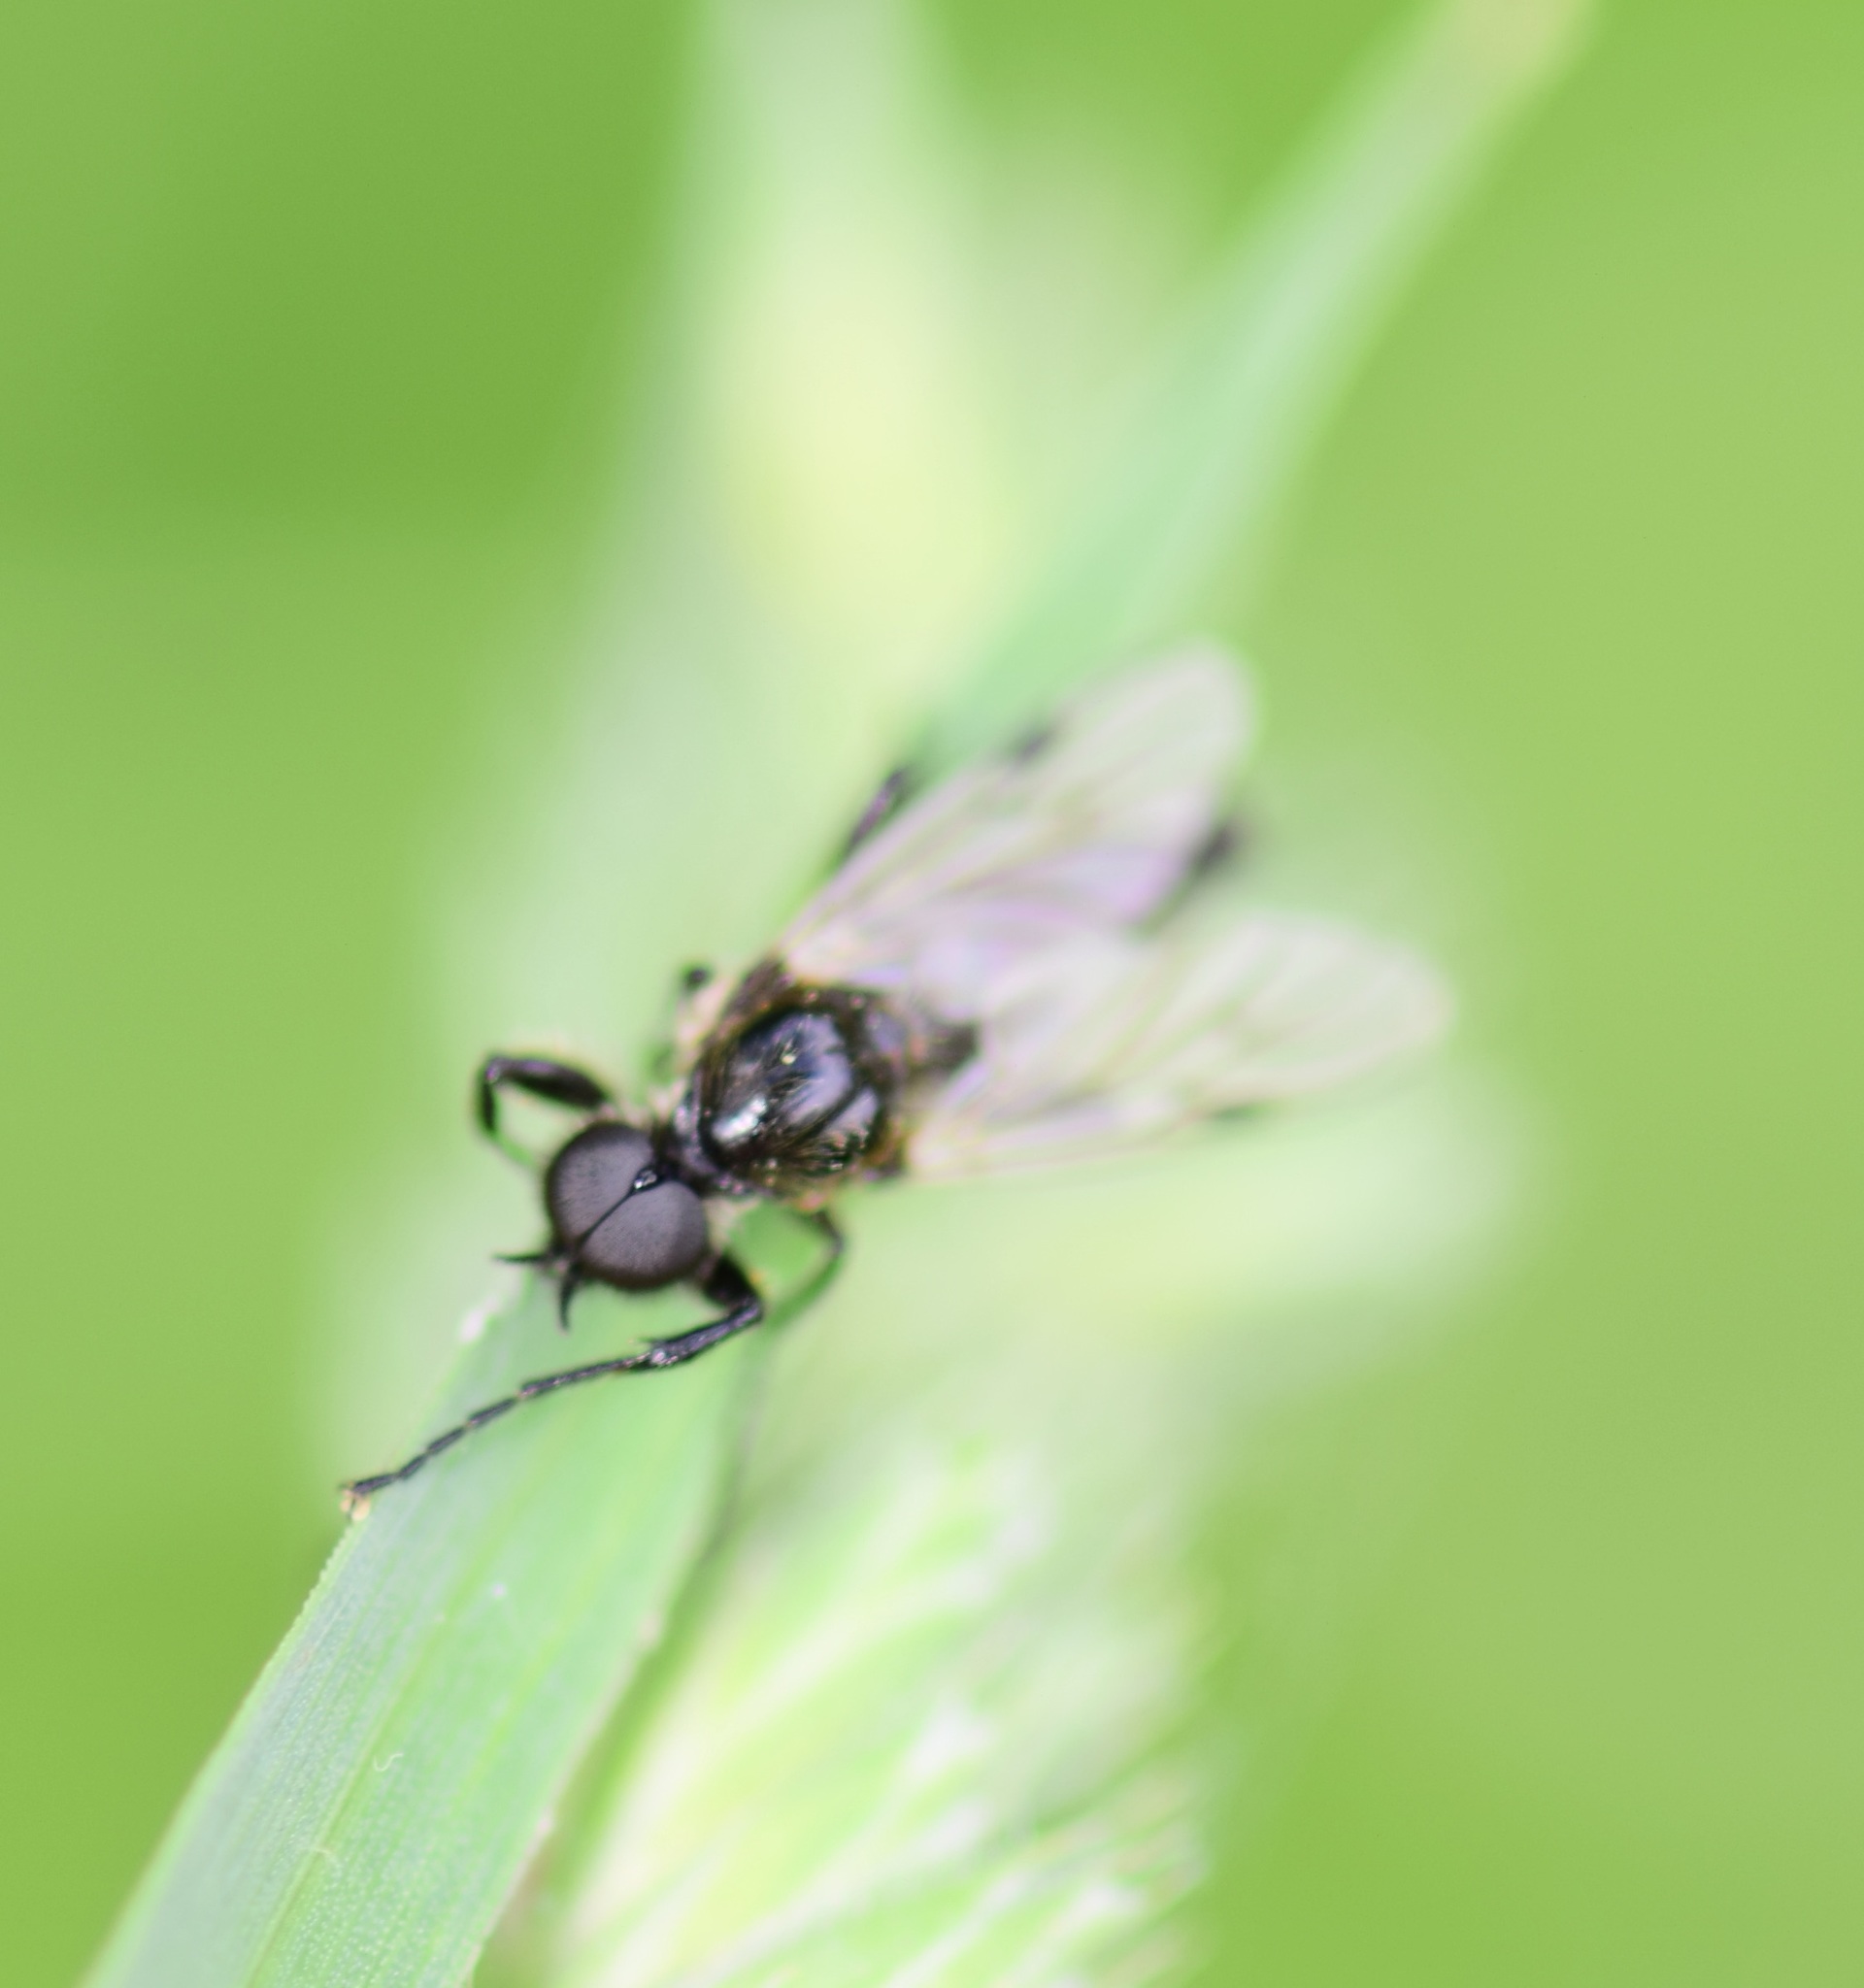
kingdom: Animalia
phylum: Arthropoda
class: Insecta
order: Diptera
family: Bibionidae
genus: Bibio
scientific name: Bibio
